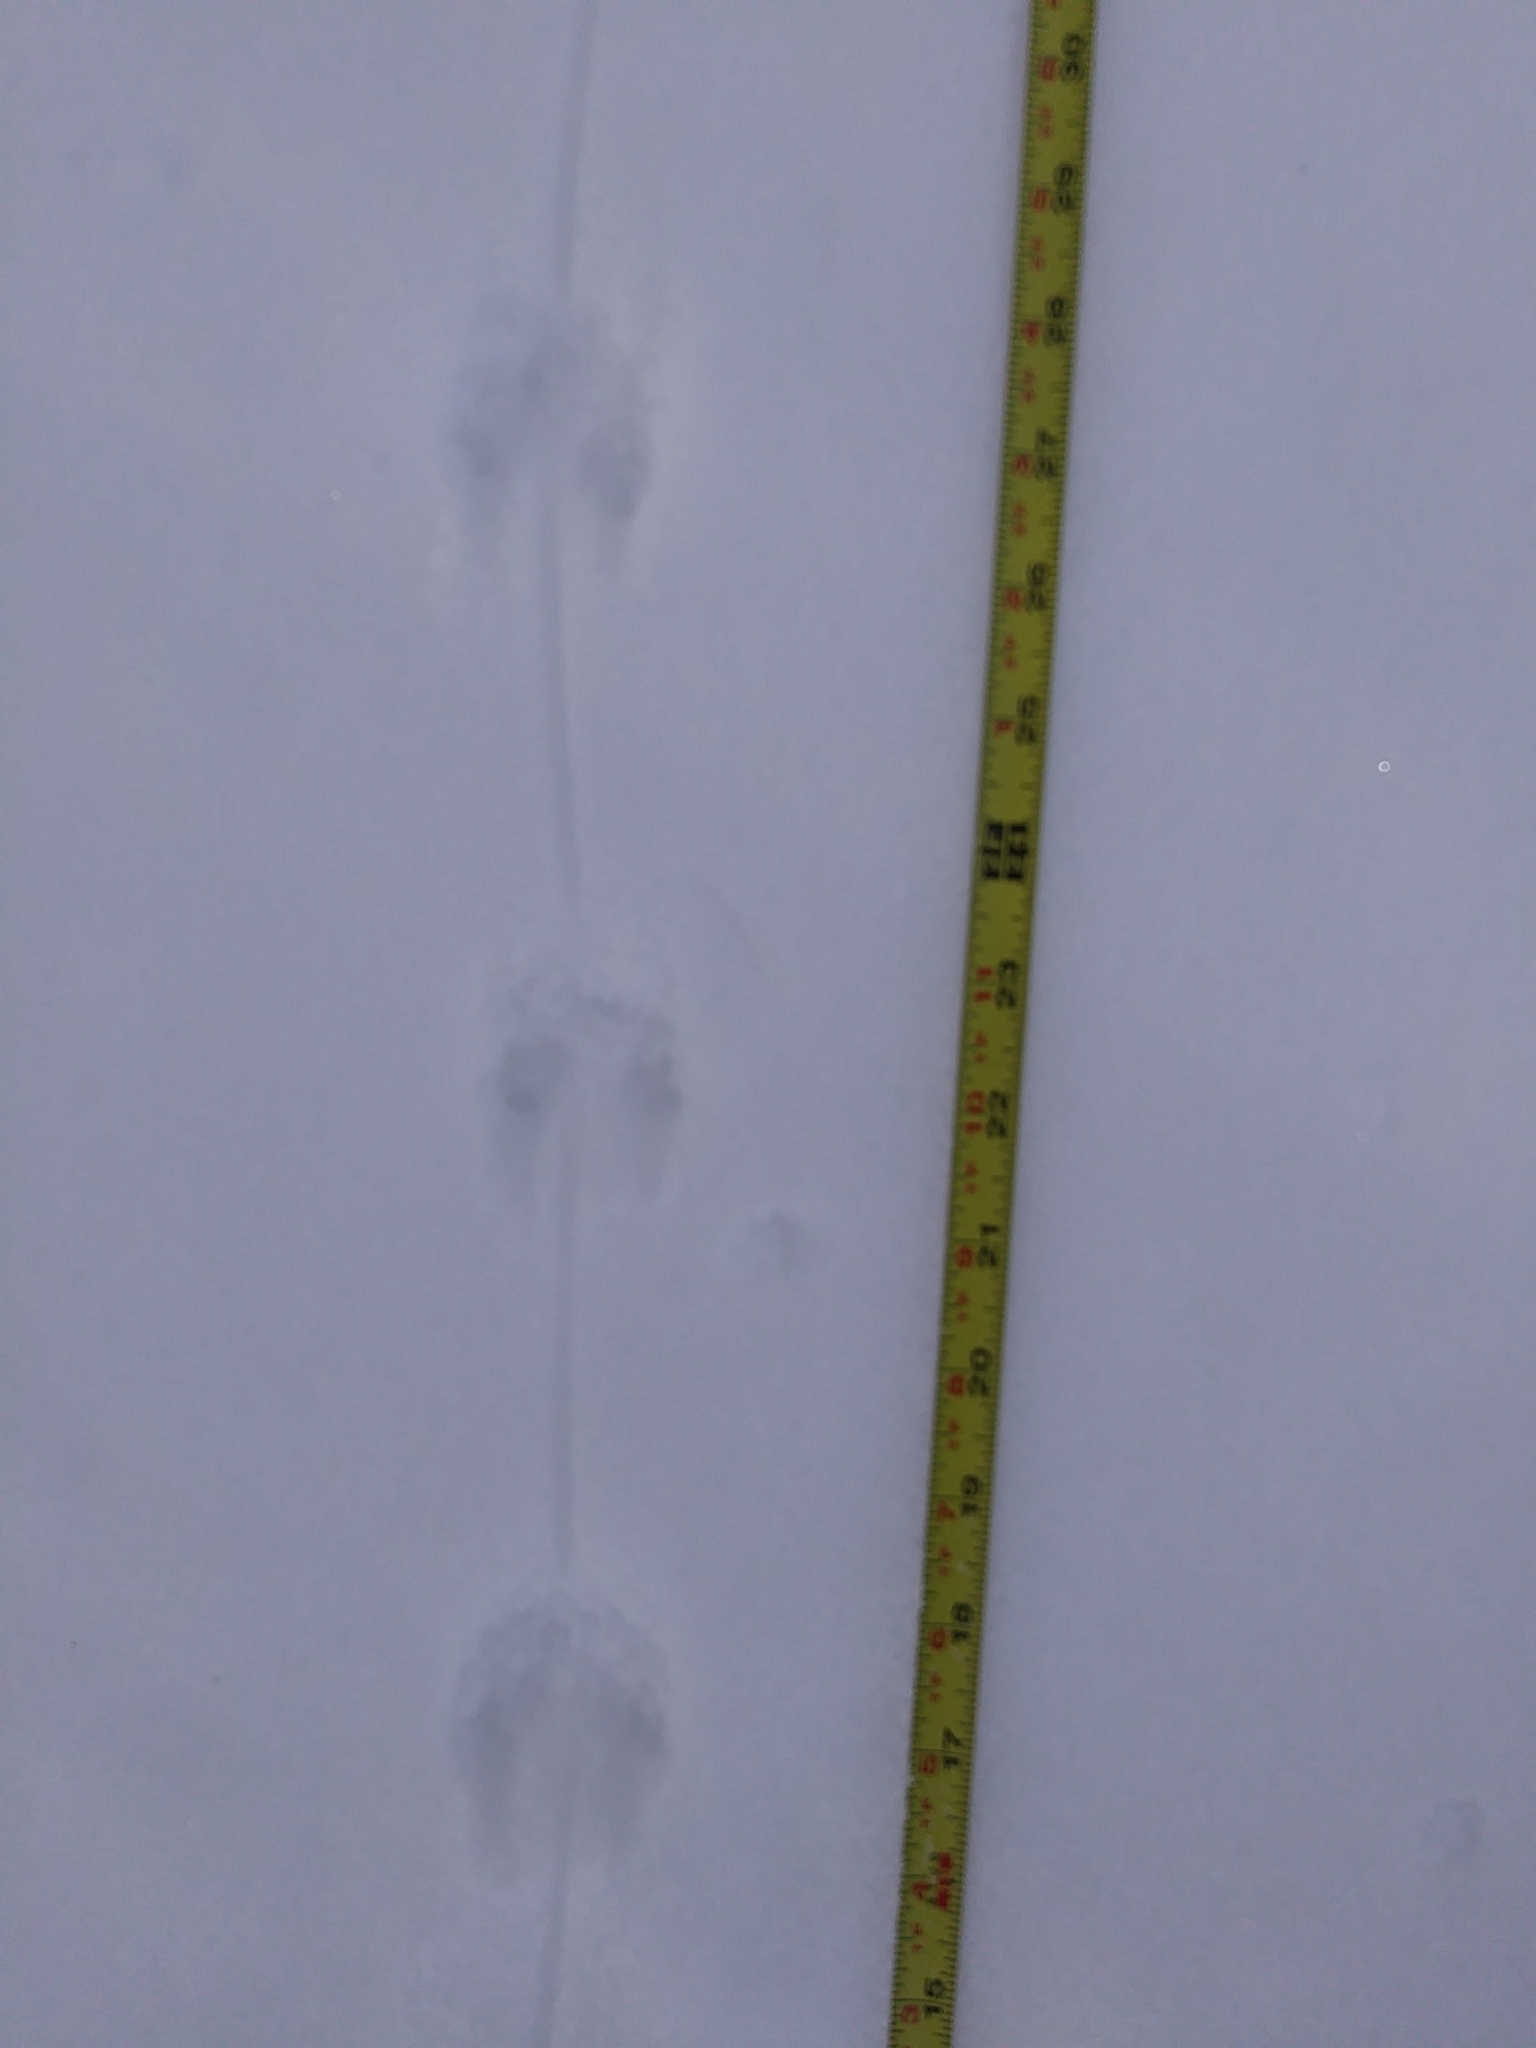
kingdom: Animalia
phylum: Chordata
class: Mammalia
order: Rodentia
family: Cricetidae
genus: Peromyscus
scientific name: Peromyscus
